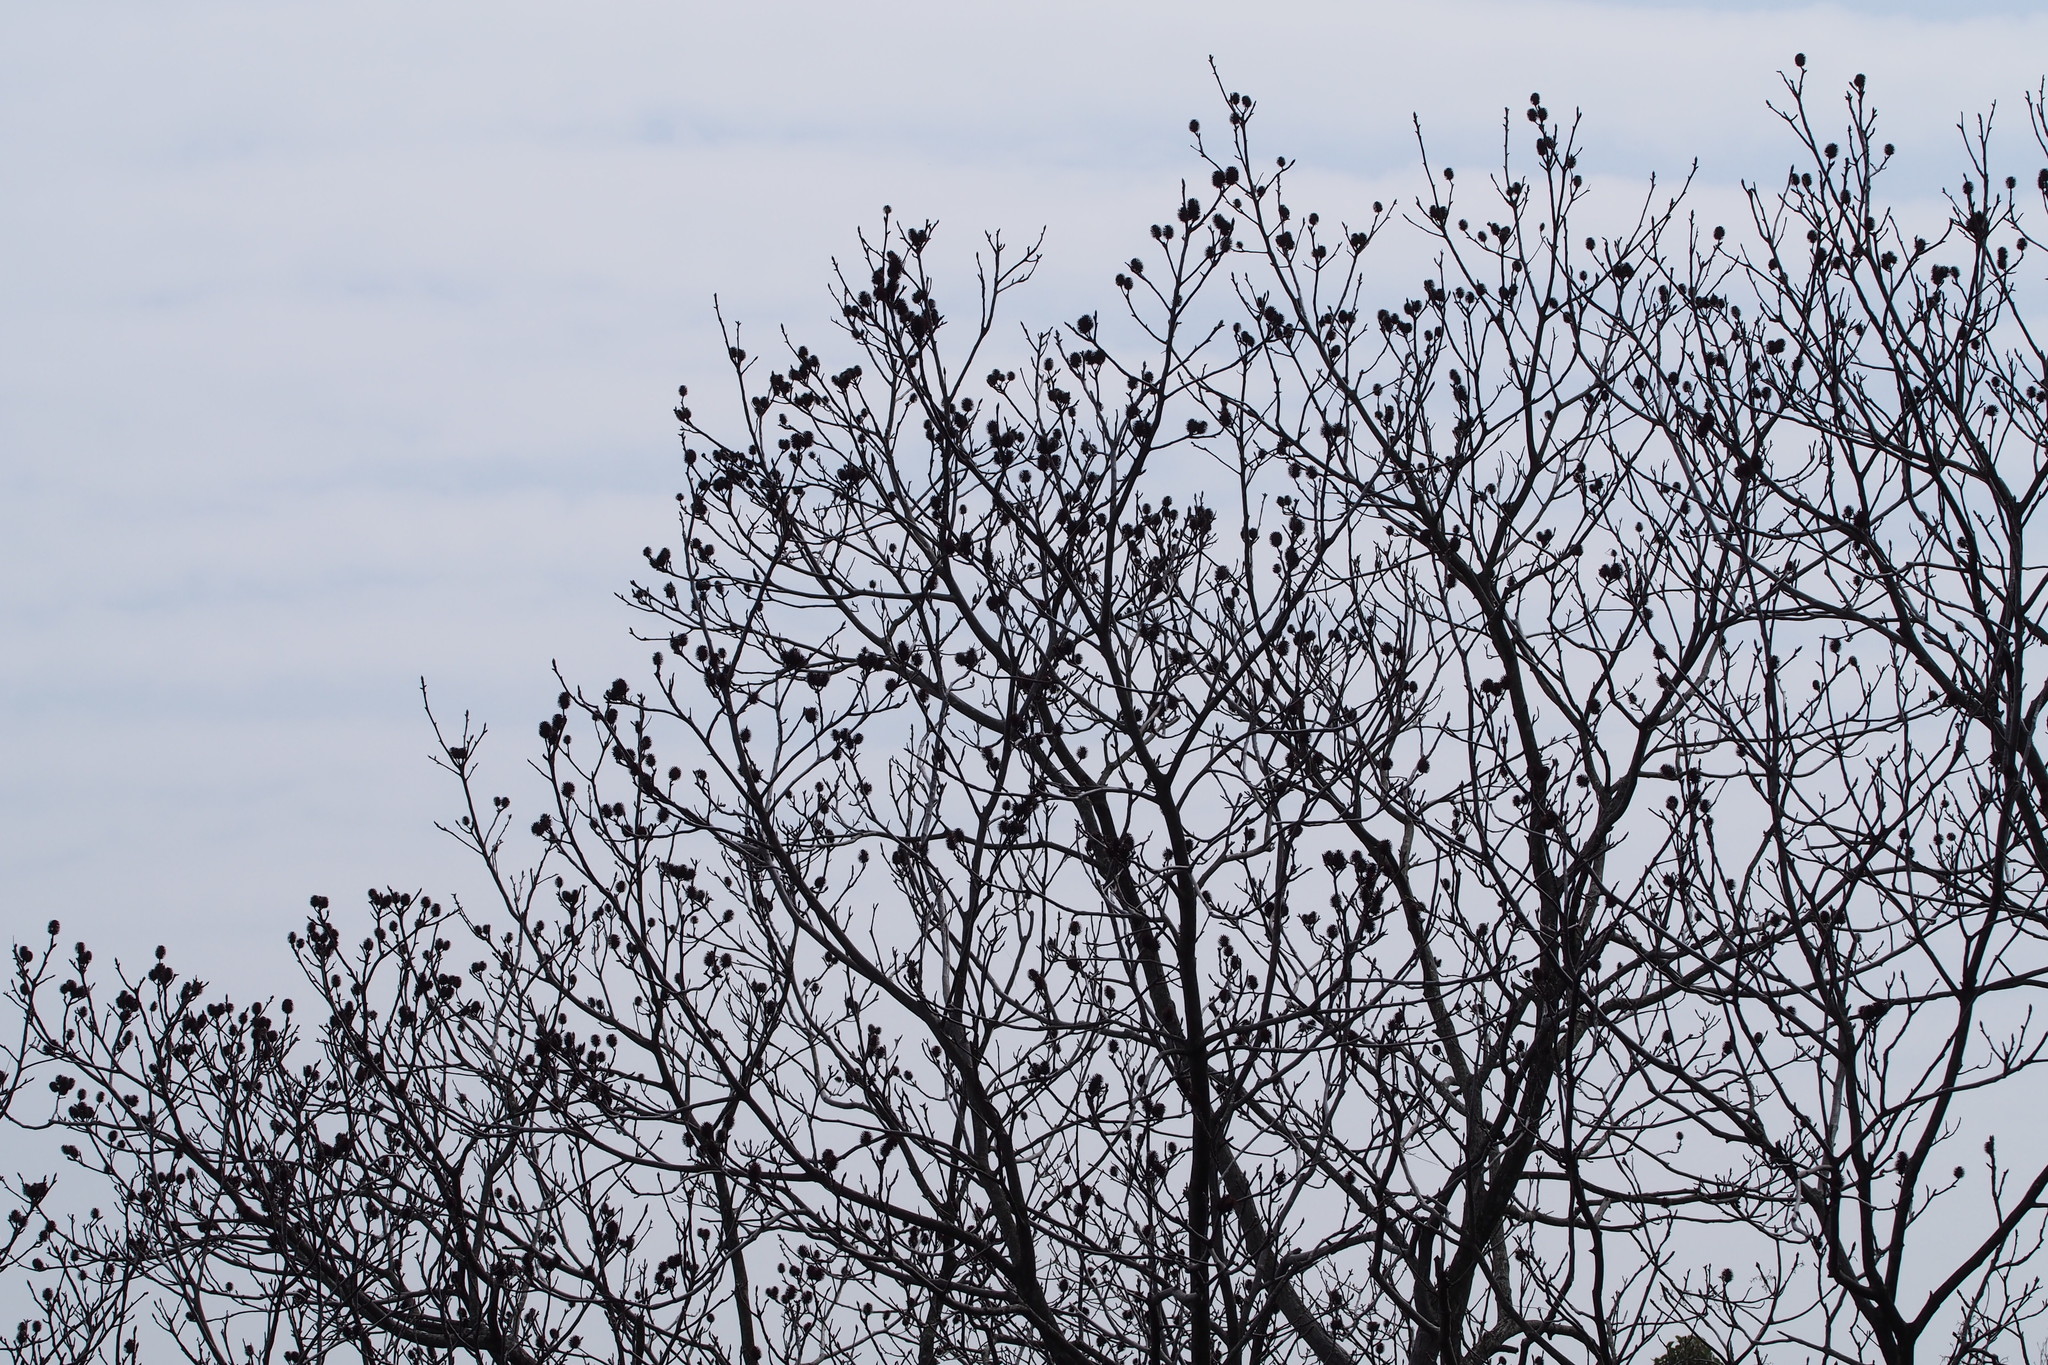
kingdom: Plantae
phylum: Tracheophyta
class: Magnoliopsida
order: Fagales
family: Juglandaceae
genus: Platycarya
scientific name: Platycarya strobilacea
